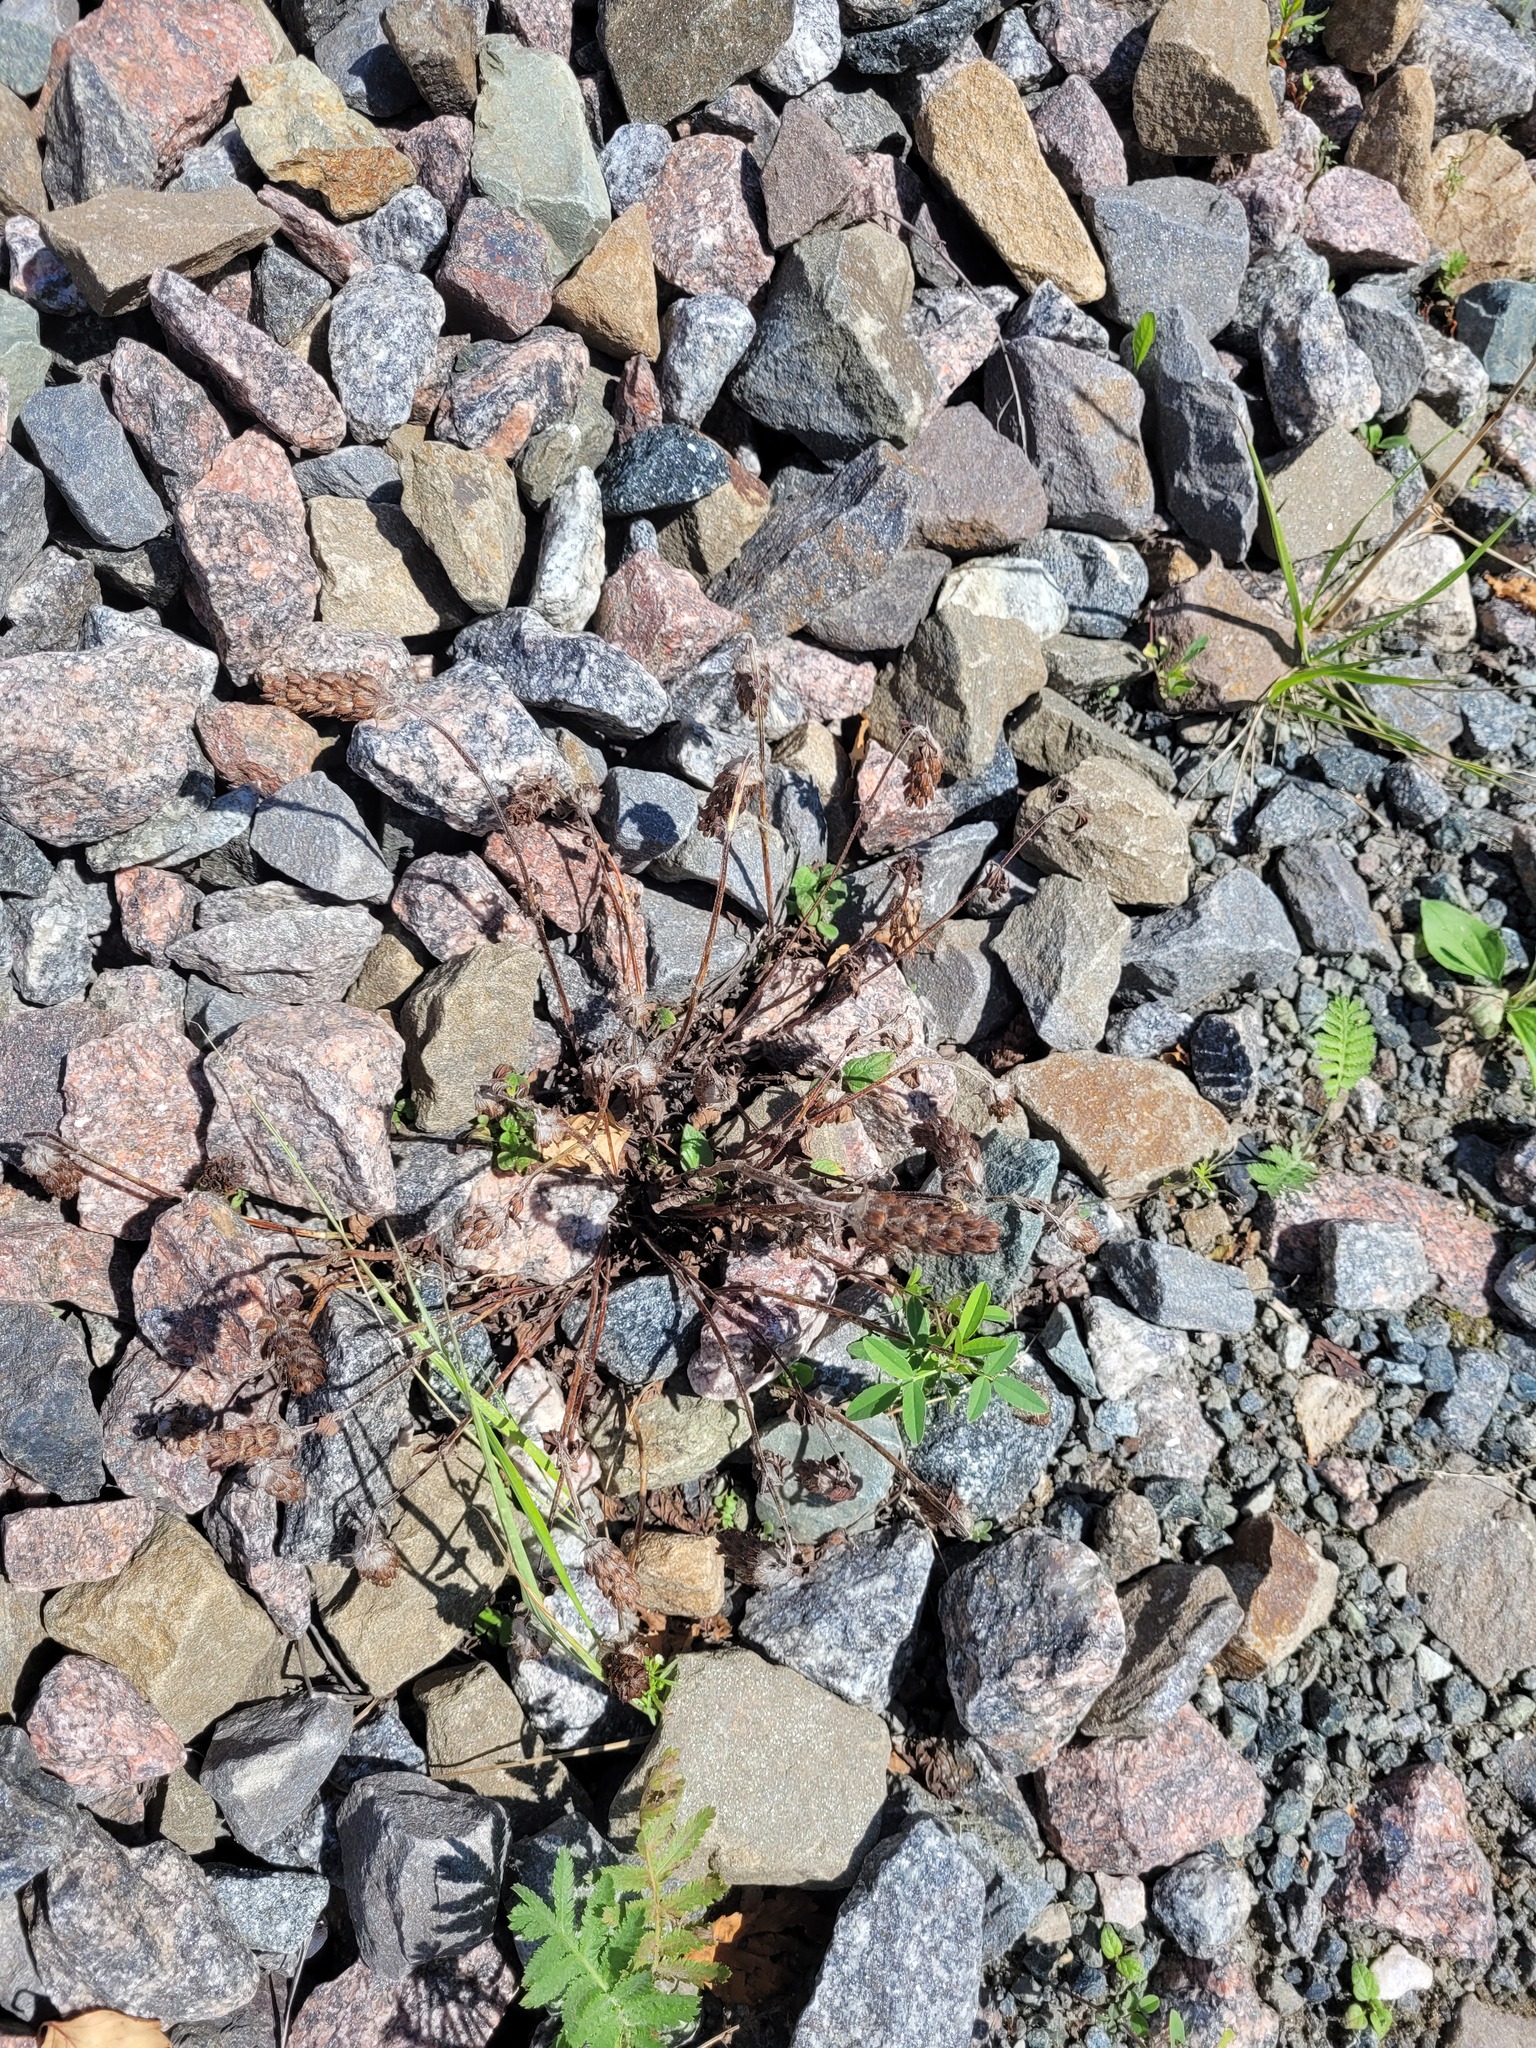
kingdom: Plantae
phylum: Tracheophyta
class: Magnoliopsida
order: Lamiales
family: Lamiaceae
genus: Prunella
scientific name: Prunella vulgaris
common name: Heal-all
